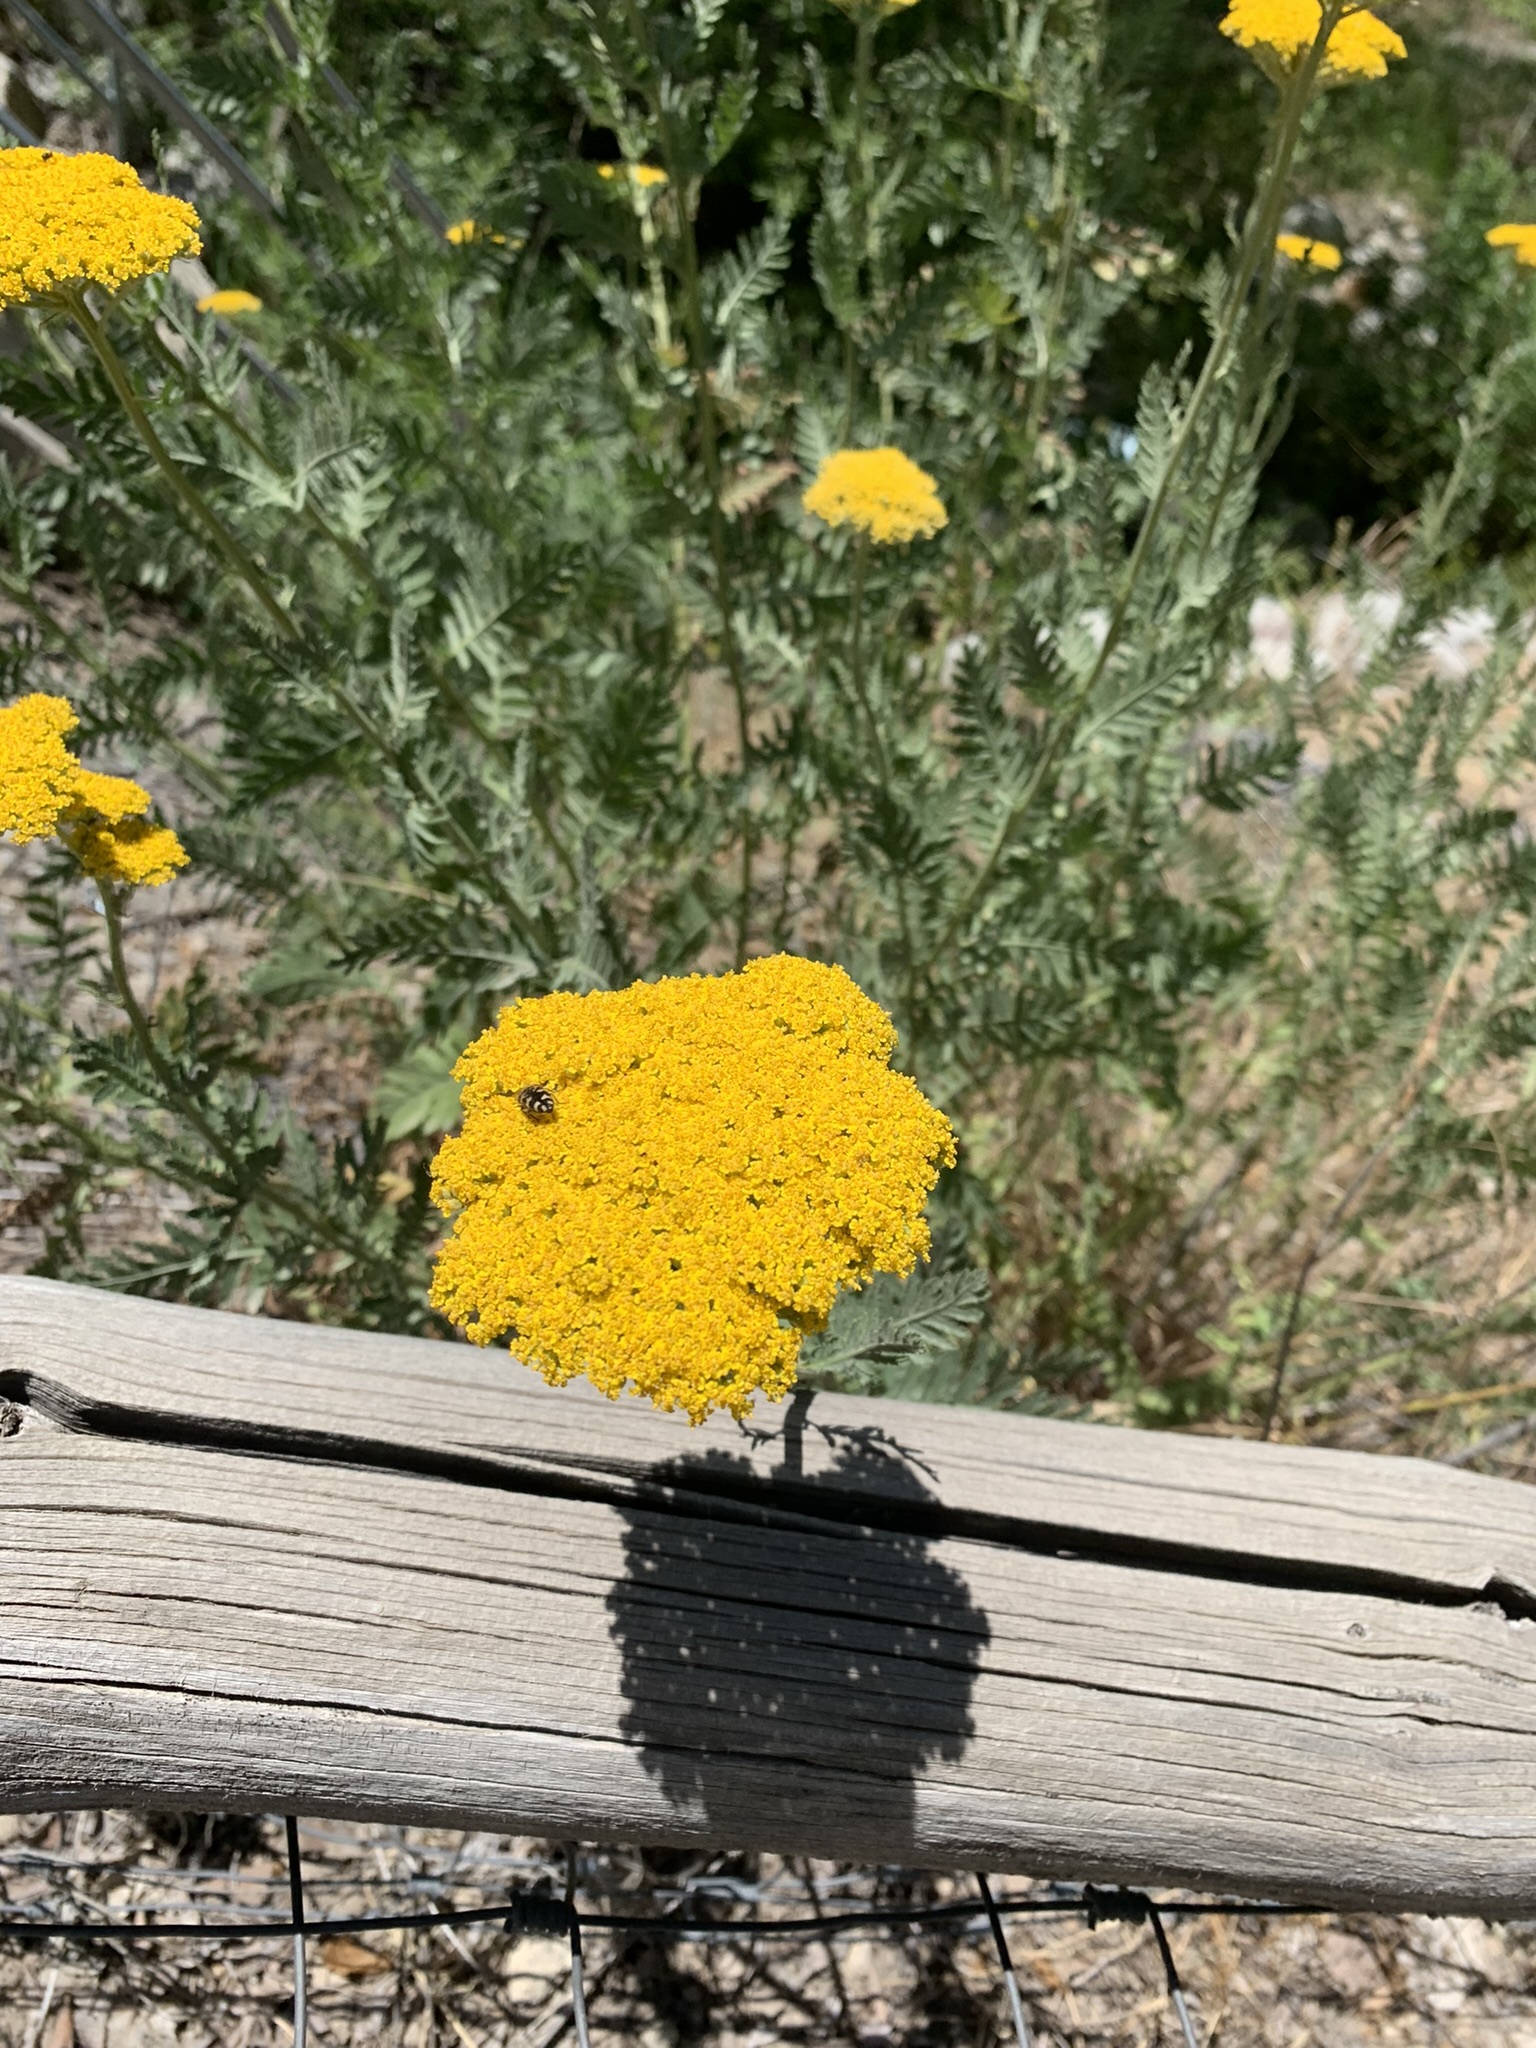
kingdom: Animalia
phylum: Arthropoda
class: Insecta
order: Coleoptera
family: Buprestidae
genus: Acmaeodera
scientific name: Acmaeodera diffusa
